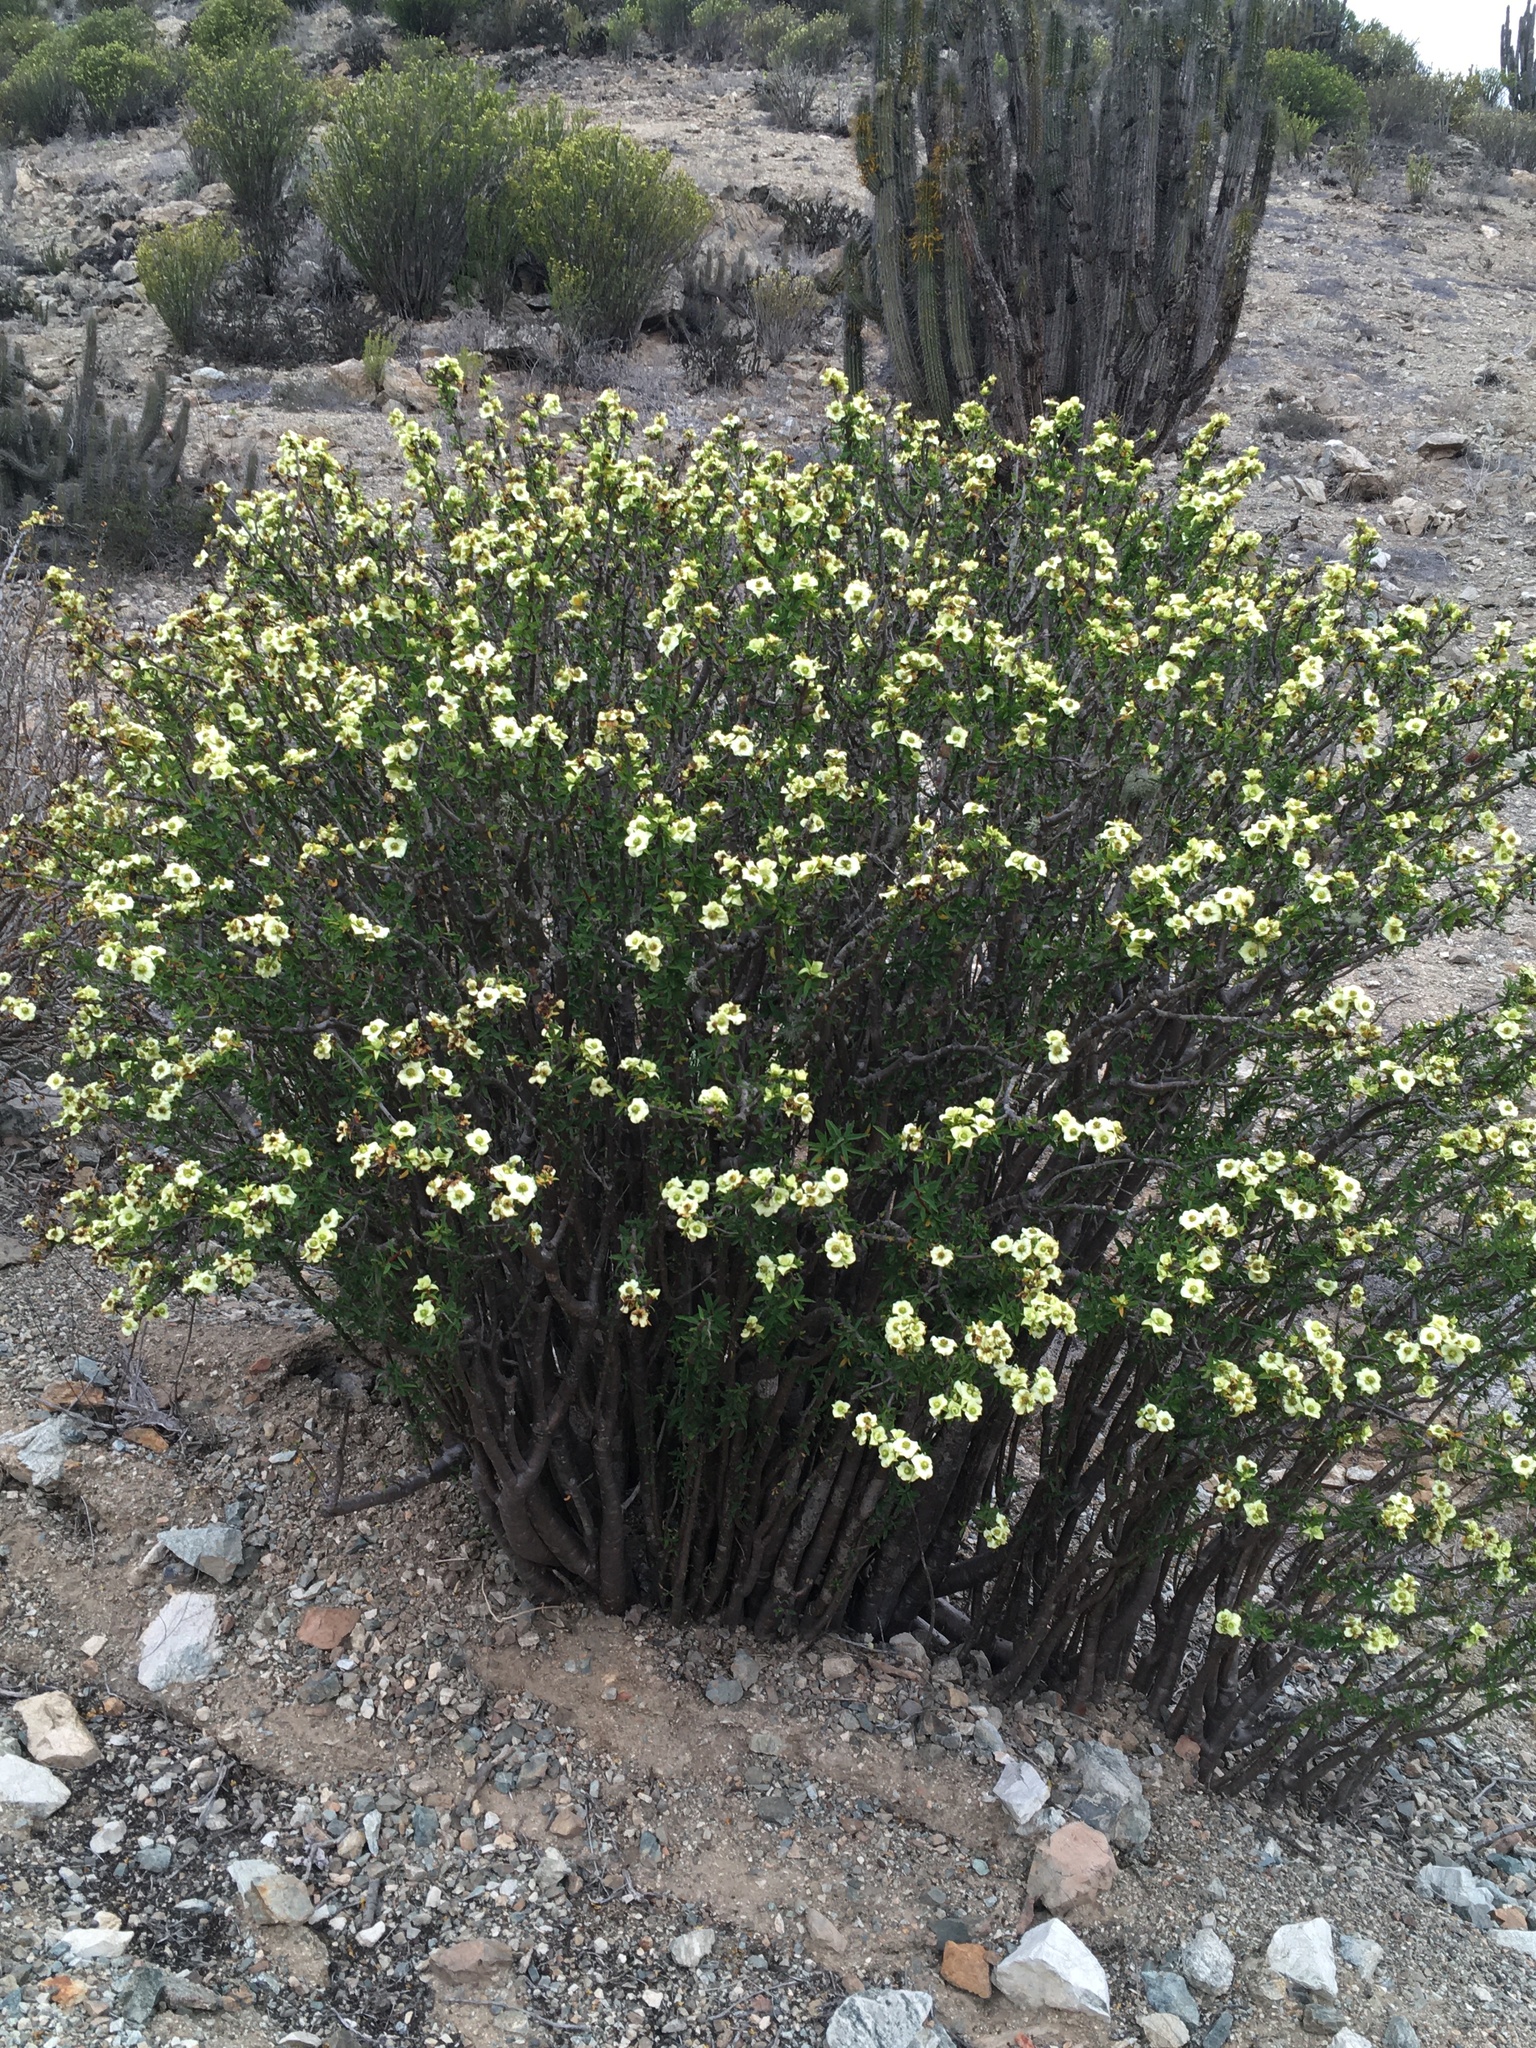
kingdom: Plantae
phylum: Tracheophyta
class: Magnoliopsida
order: Malpighiales
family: Euphorbiaceae
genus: Euphorbia
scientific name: Euphorbia lactiflua
